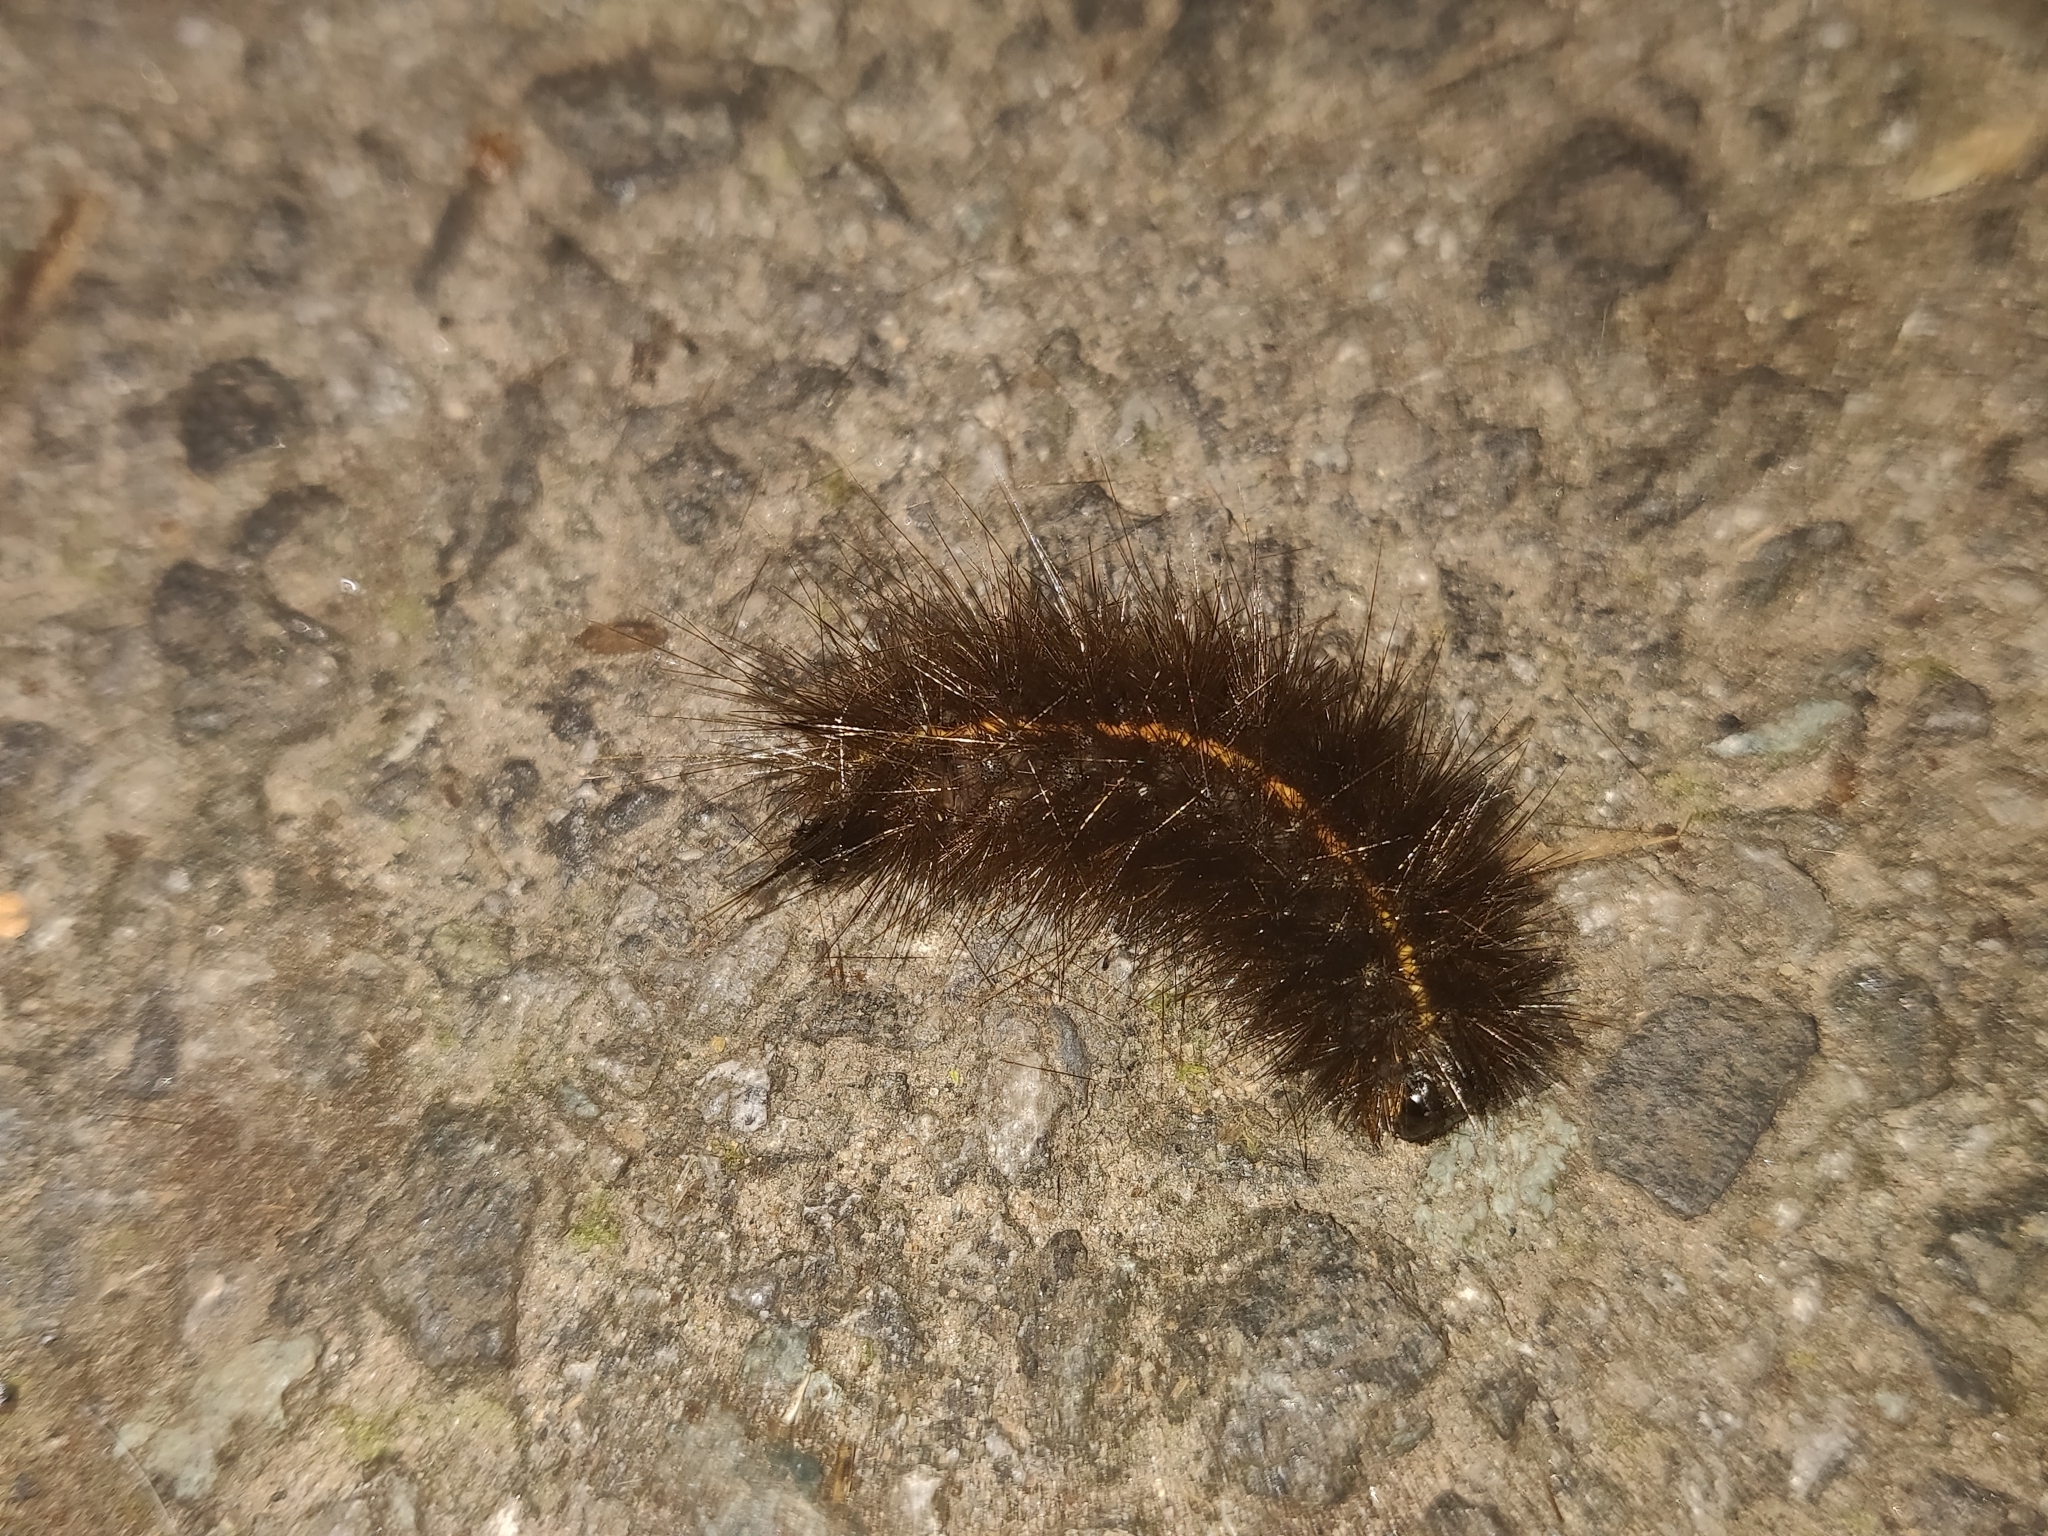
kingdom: Animalia
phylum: Arthropoda
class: Insecta
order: Lepidoptera
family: Erebidae
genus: Spilosoma
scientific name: Spilosoma lubricipeda
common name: White ermine
